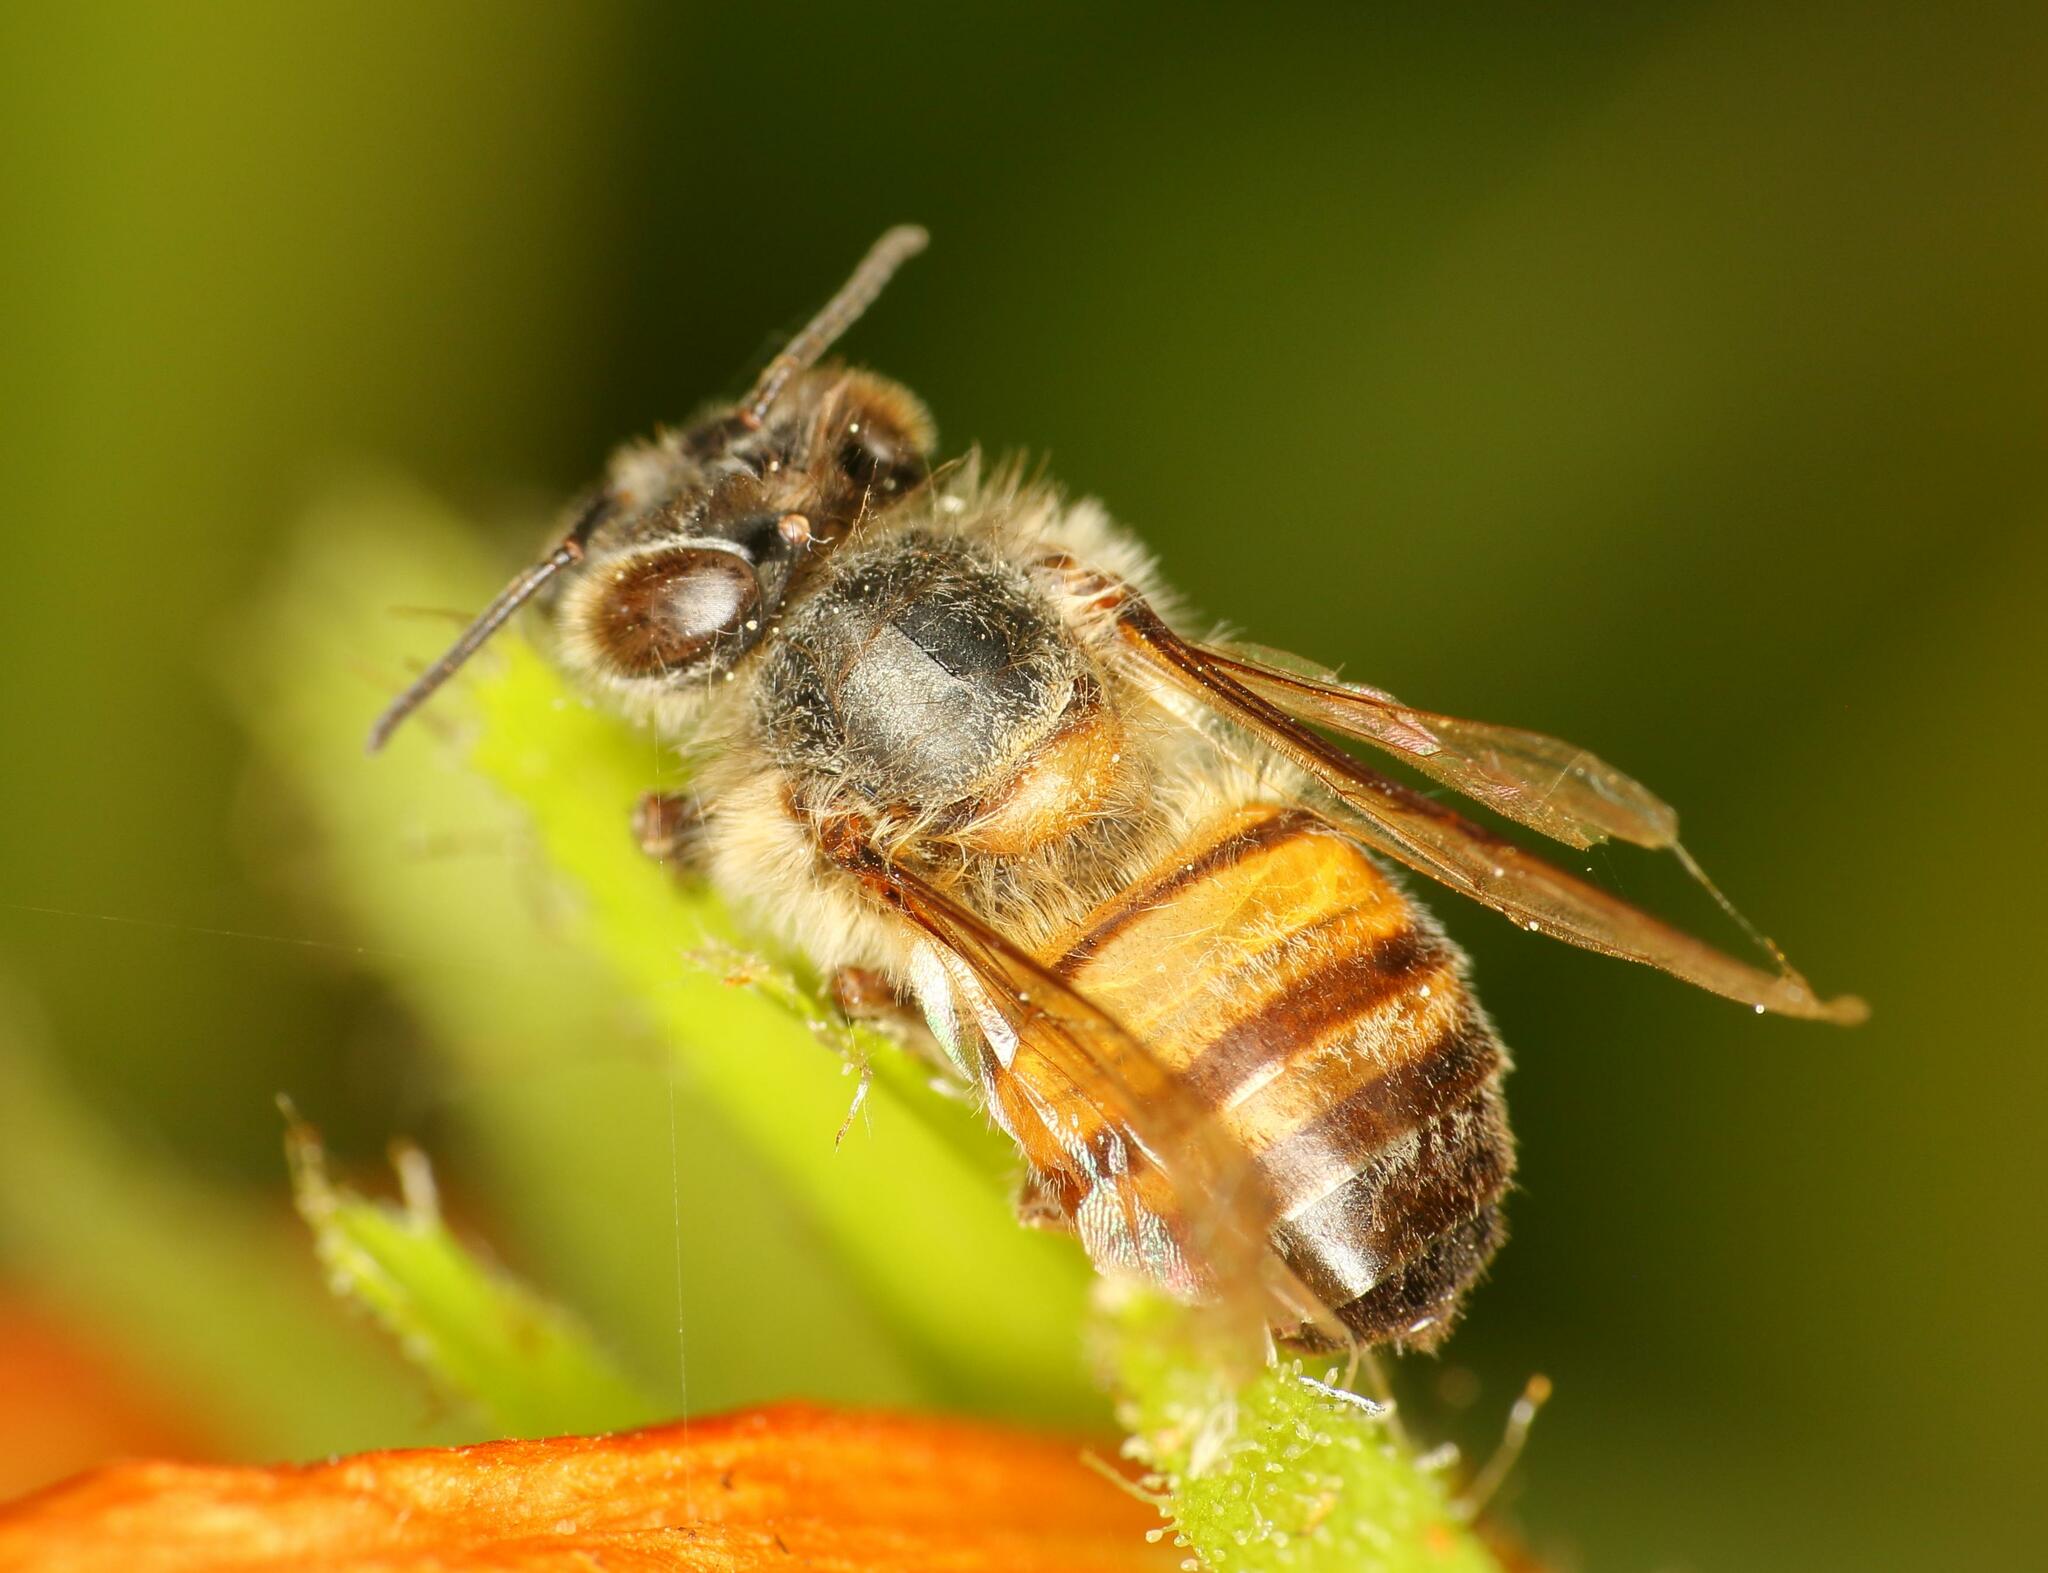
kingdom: Animalia
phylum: Arthropoda
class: Insecta
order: Hymenoptera
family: Apidae
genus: Apis
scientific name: Apis mellifera
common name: Honey bee
